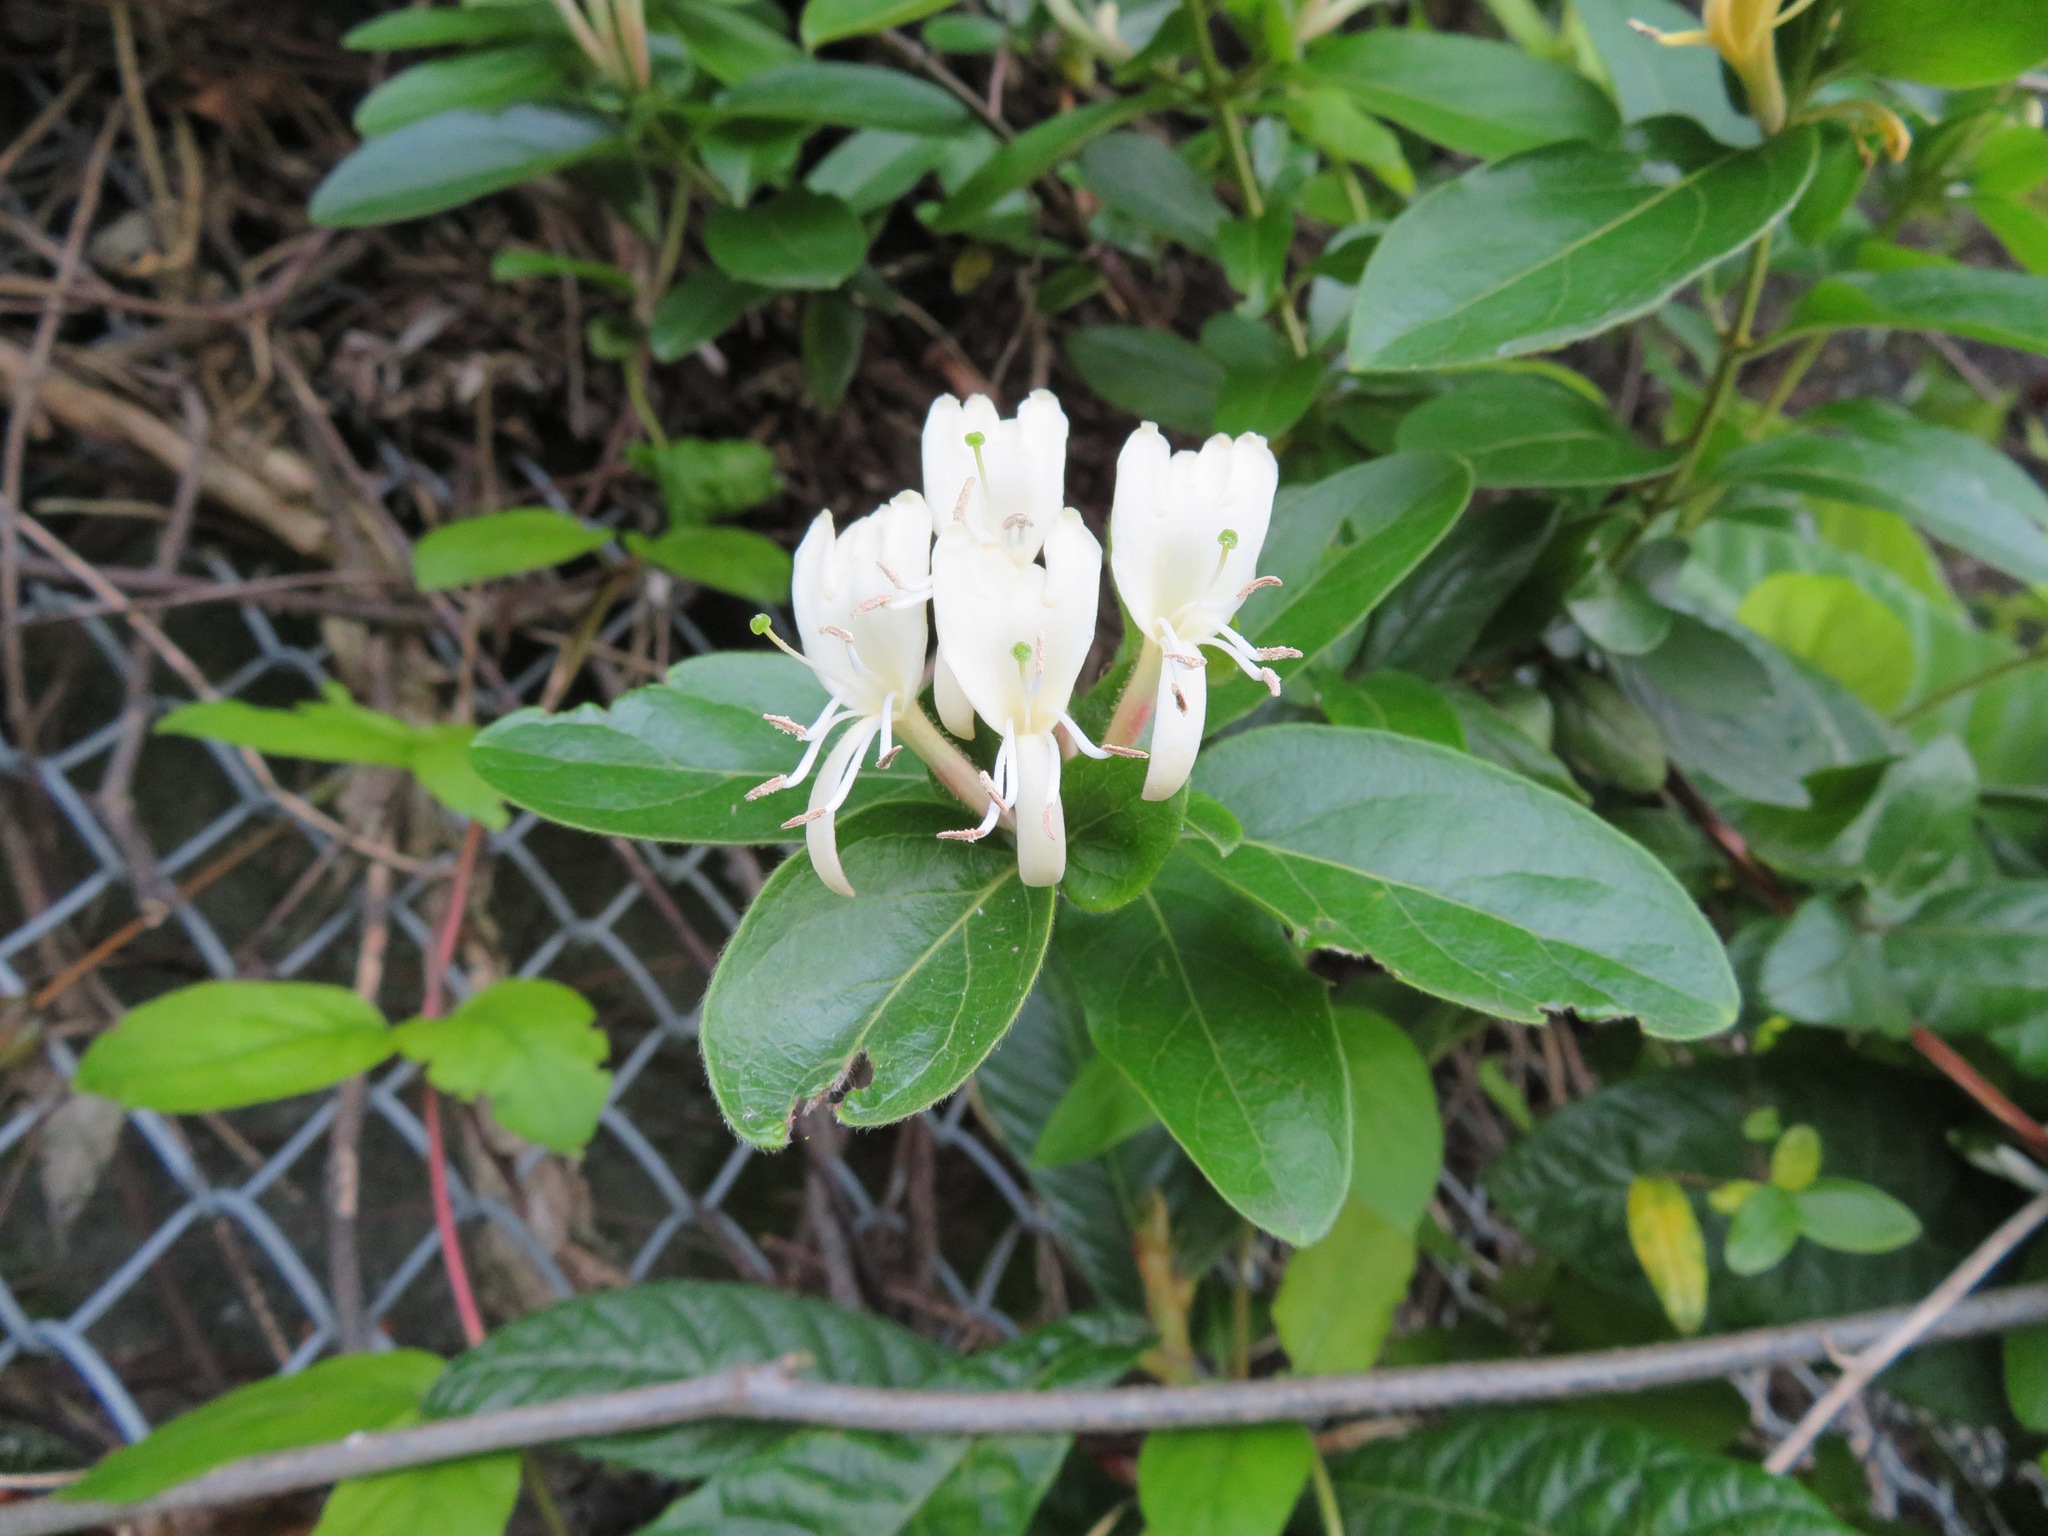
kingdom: Plantae
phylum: Tracheophyta
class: Magnoliopsida
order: Dipsacales
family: Caprifoliaceae
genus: Lonicera
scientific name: Lonicera japonica
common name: Japanese honeysuckle
